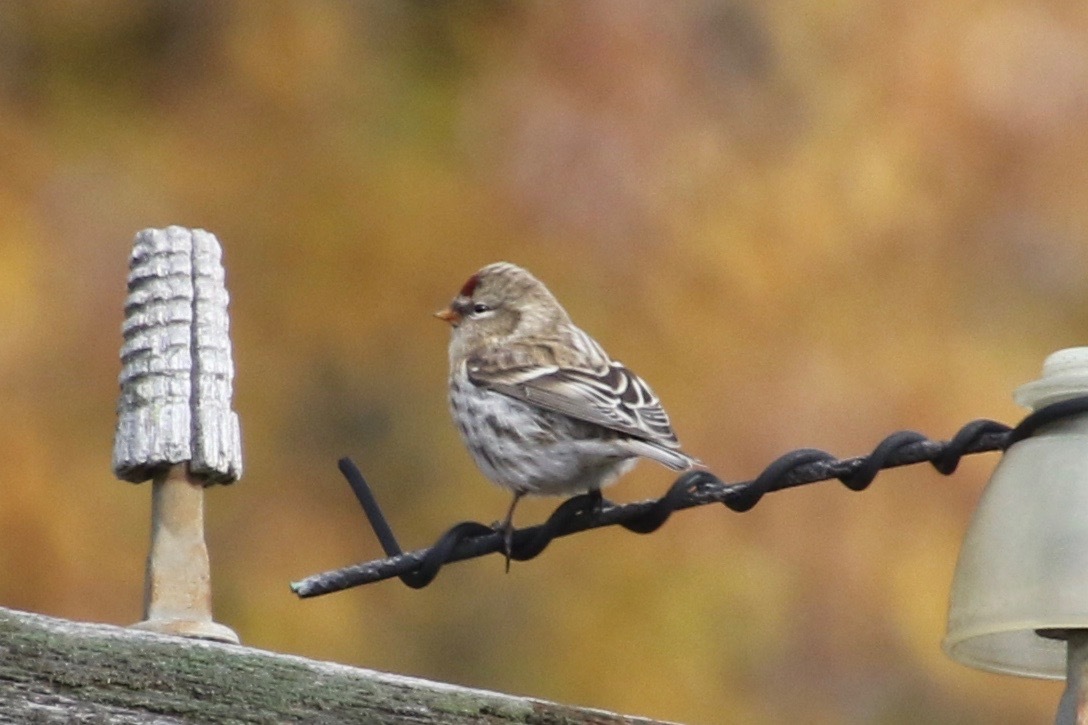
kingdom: Animalia
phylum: Chordata
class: Aves
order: Passeriformes
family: Fringillidae
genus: Acanthis
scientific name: Acanthis flammea
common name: Common redpoll
